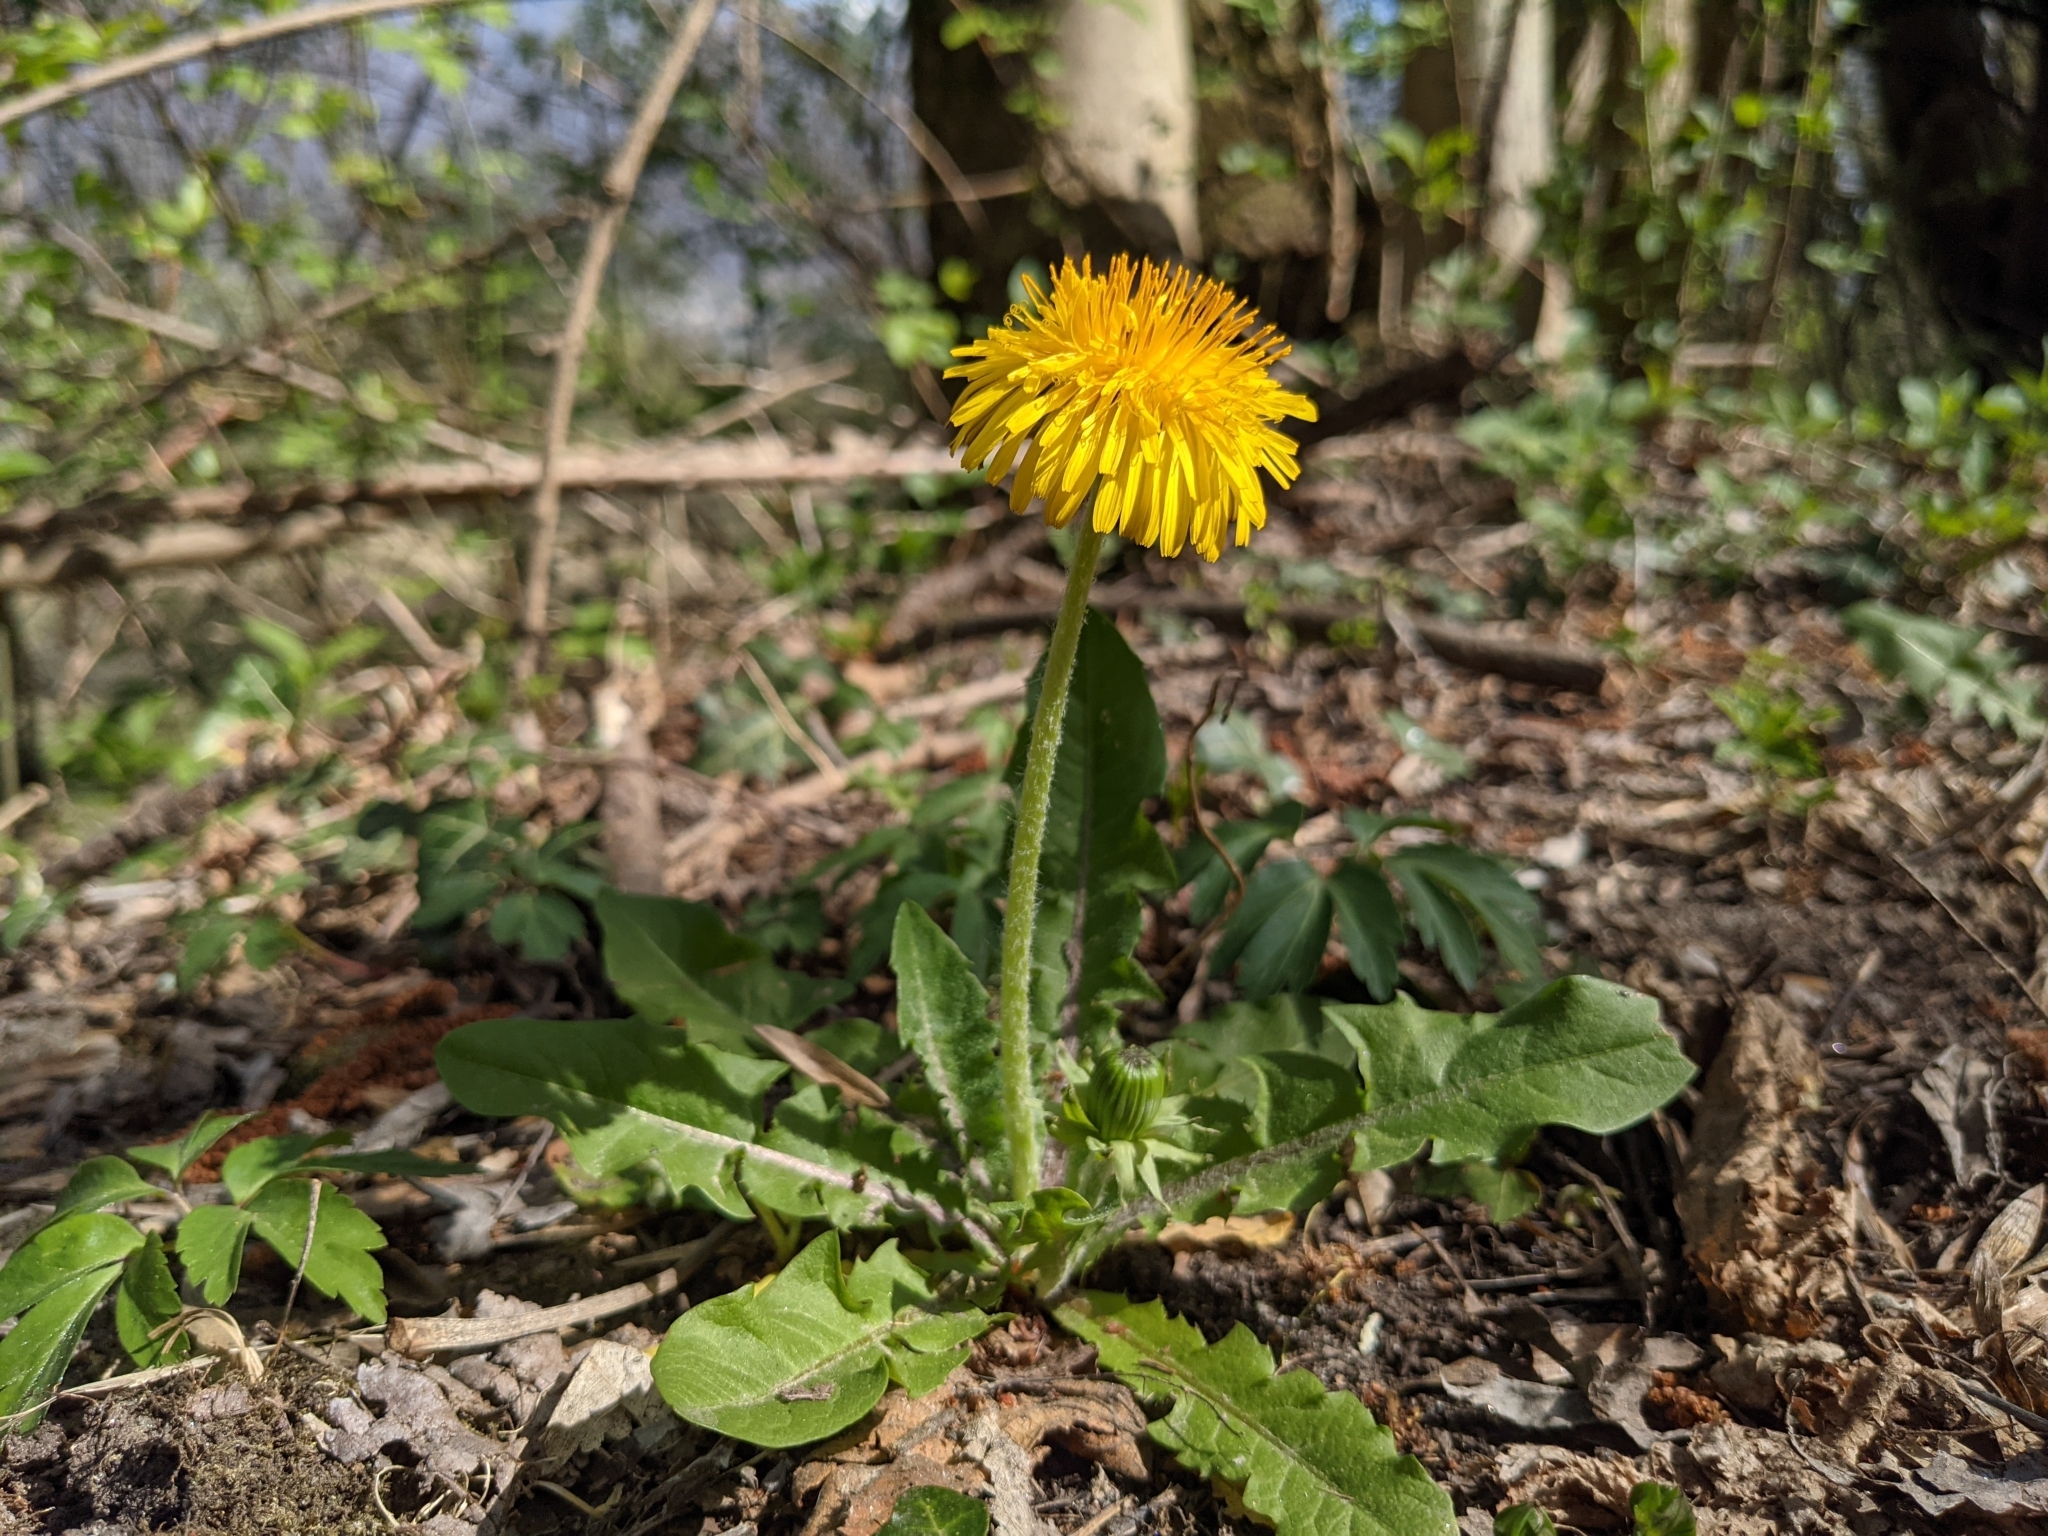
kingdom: Plantae
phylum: Tracheophyta
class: Magnoliopsida
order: Asterales
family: Asteraceae
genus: Taraxacum
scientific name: Taraxacum officinale
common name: Common dandelion
